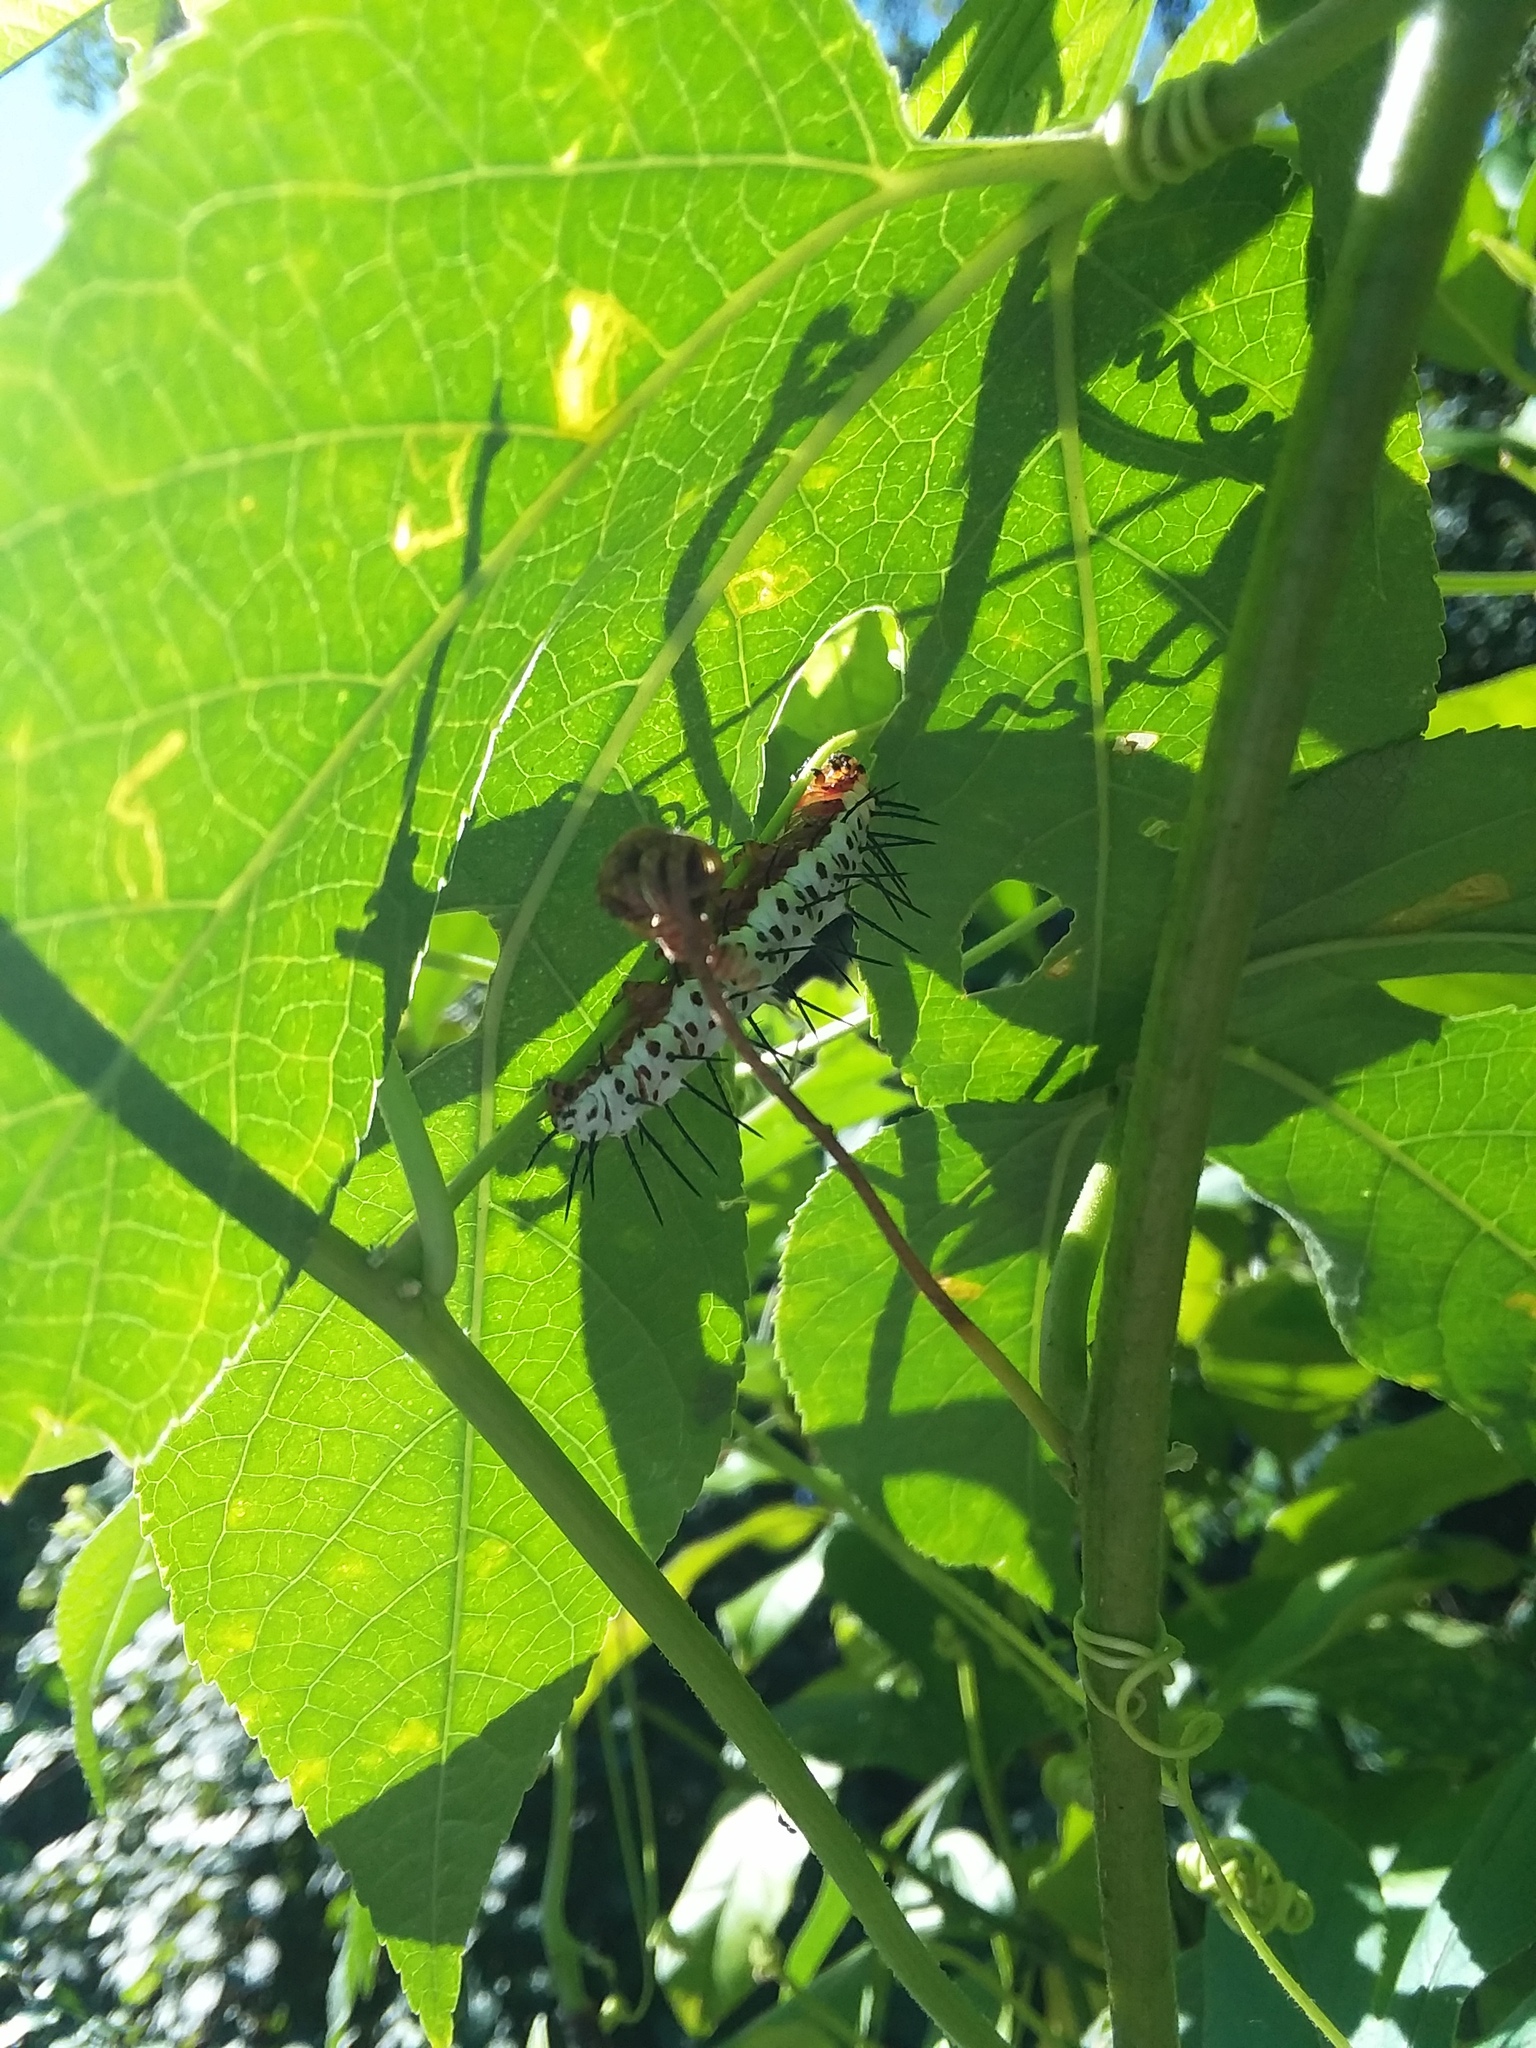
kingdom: Animalia
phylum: Arthropoda
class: Insecta
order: Lepidoptera
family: Nymphalidae
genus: Heliconius
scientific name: Heliconius charithonia
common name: Zebra long wing
